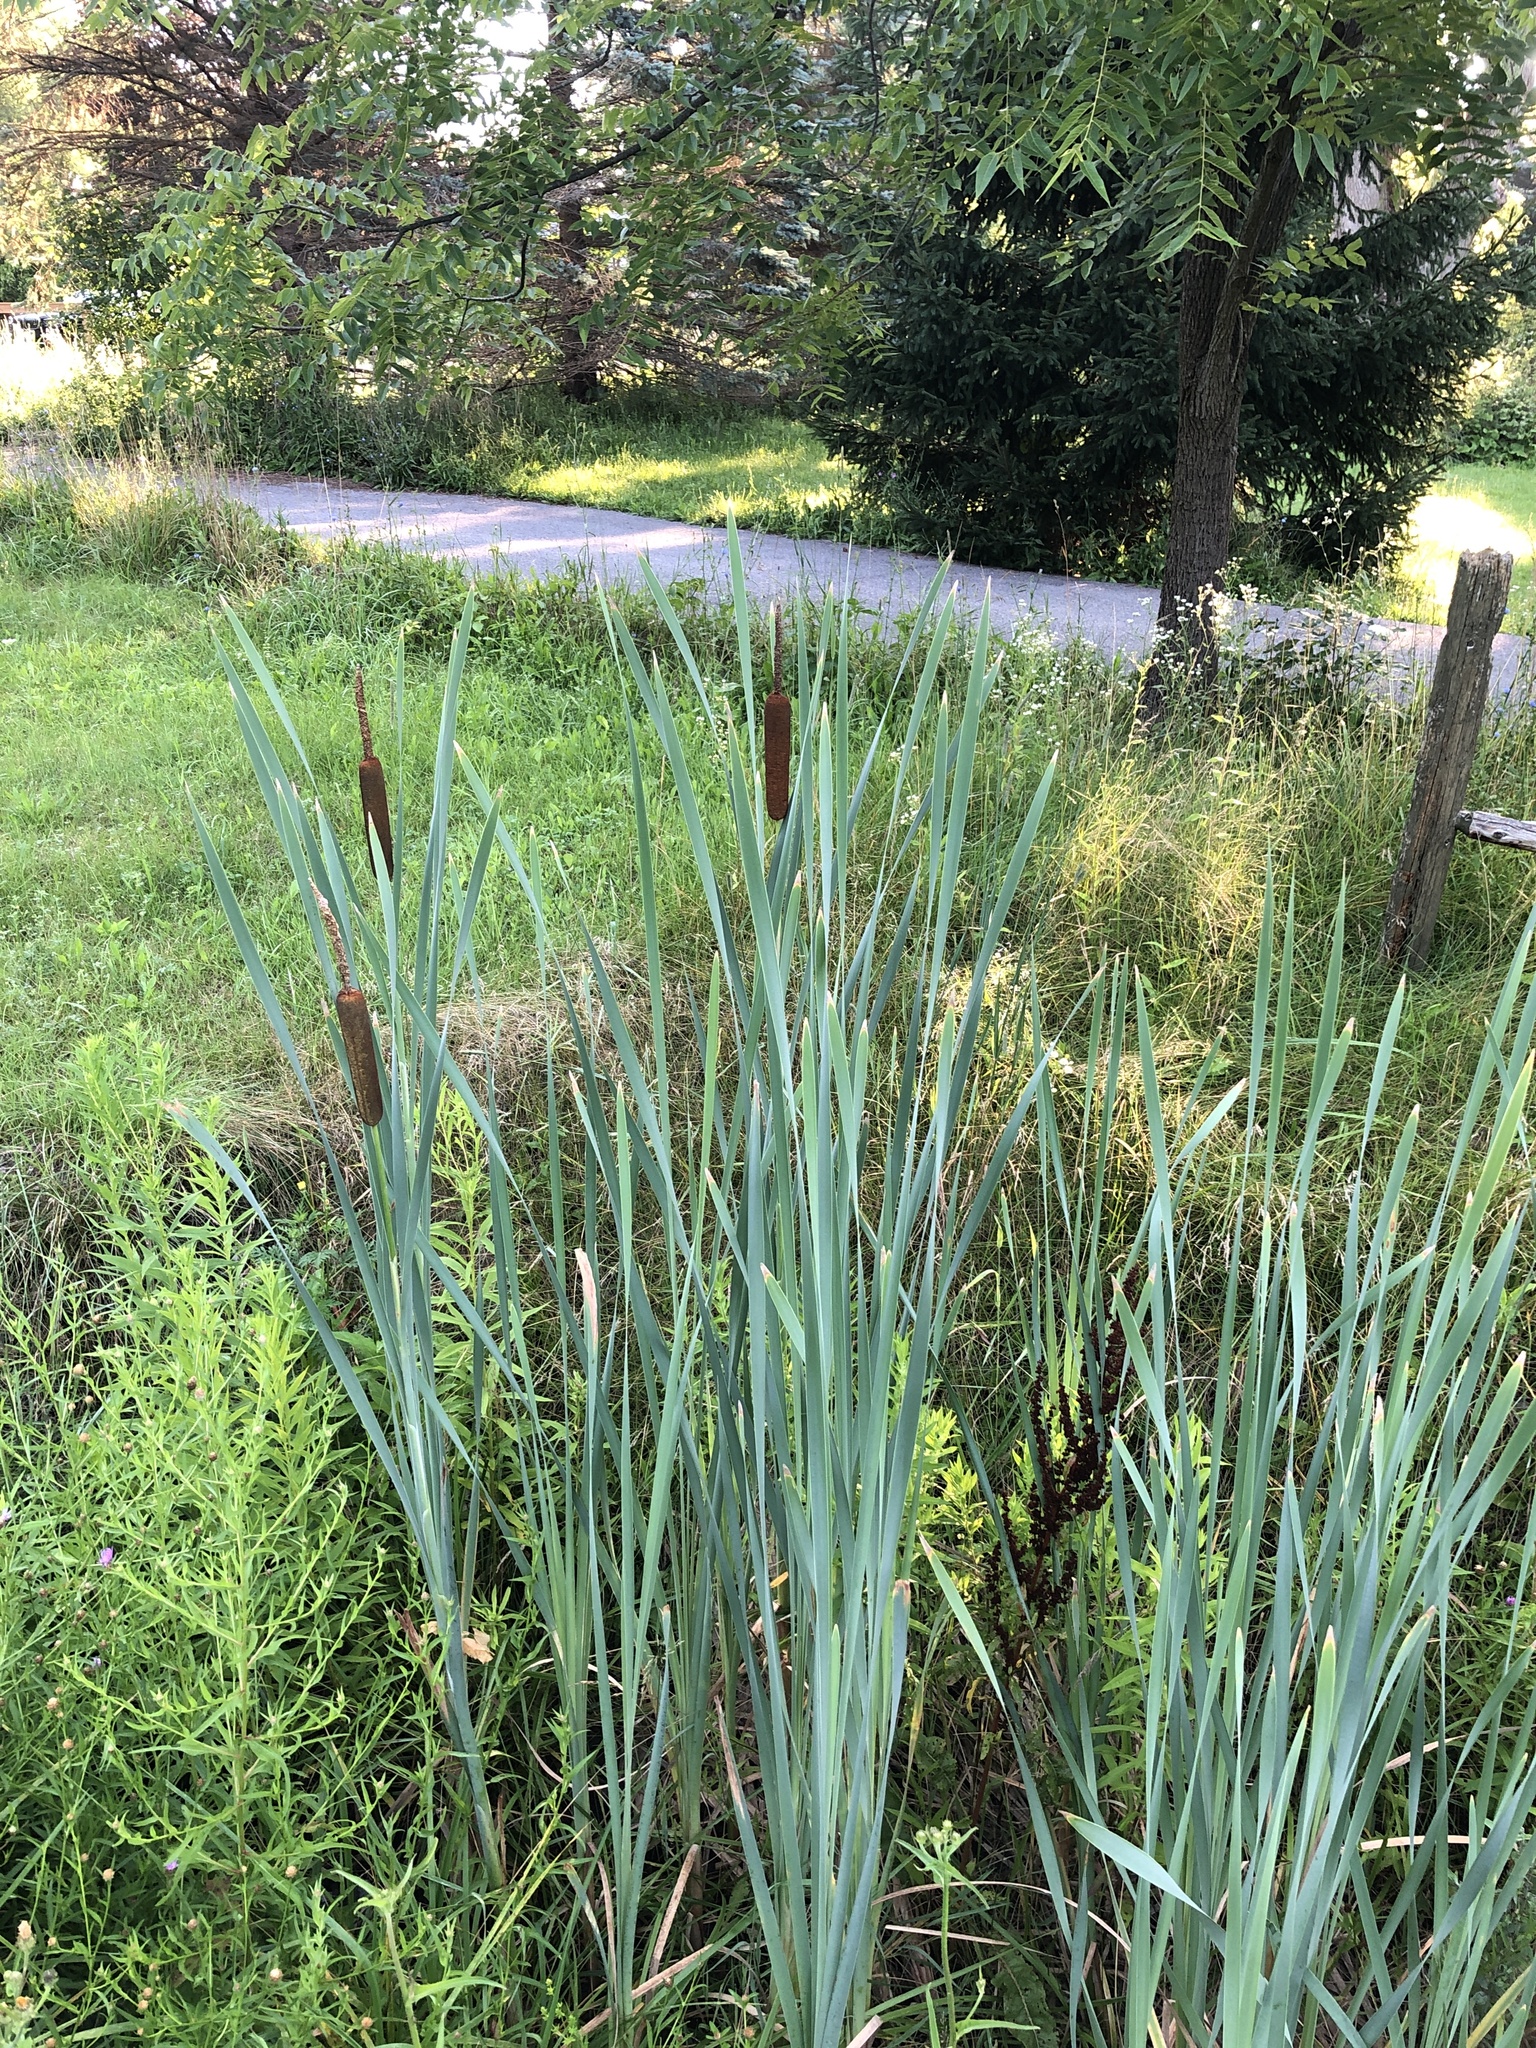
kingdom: Plantae
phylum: Tracheophyta
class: Liliopsida
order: Poales
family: Typhaceae
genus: Typha
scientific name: Typha latifolia
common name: Broadleaf cattail
